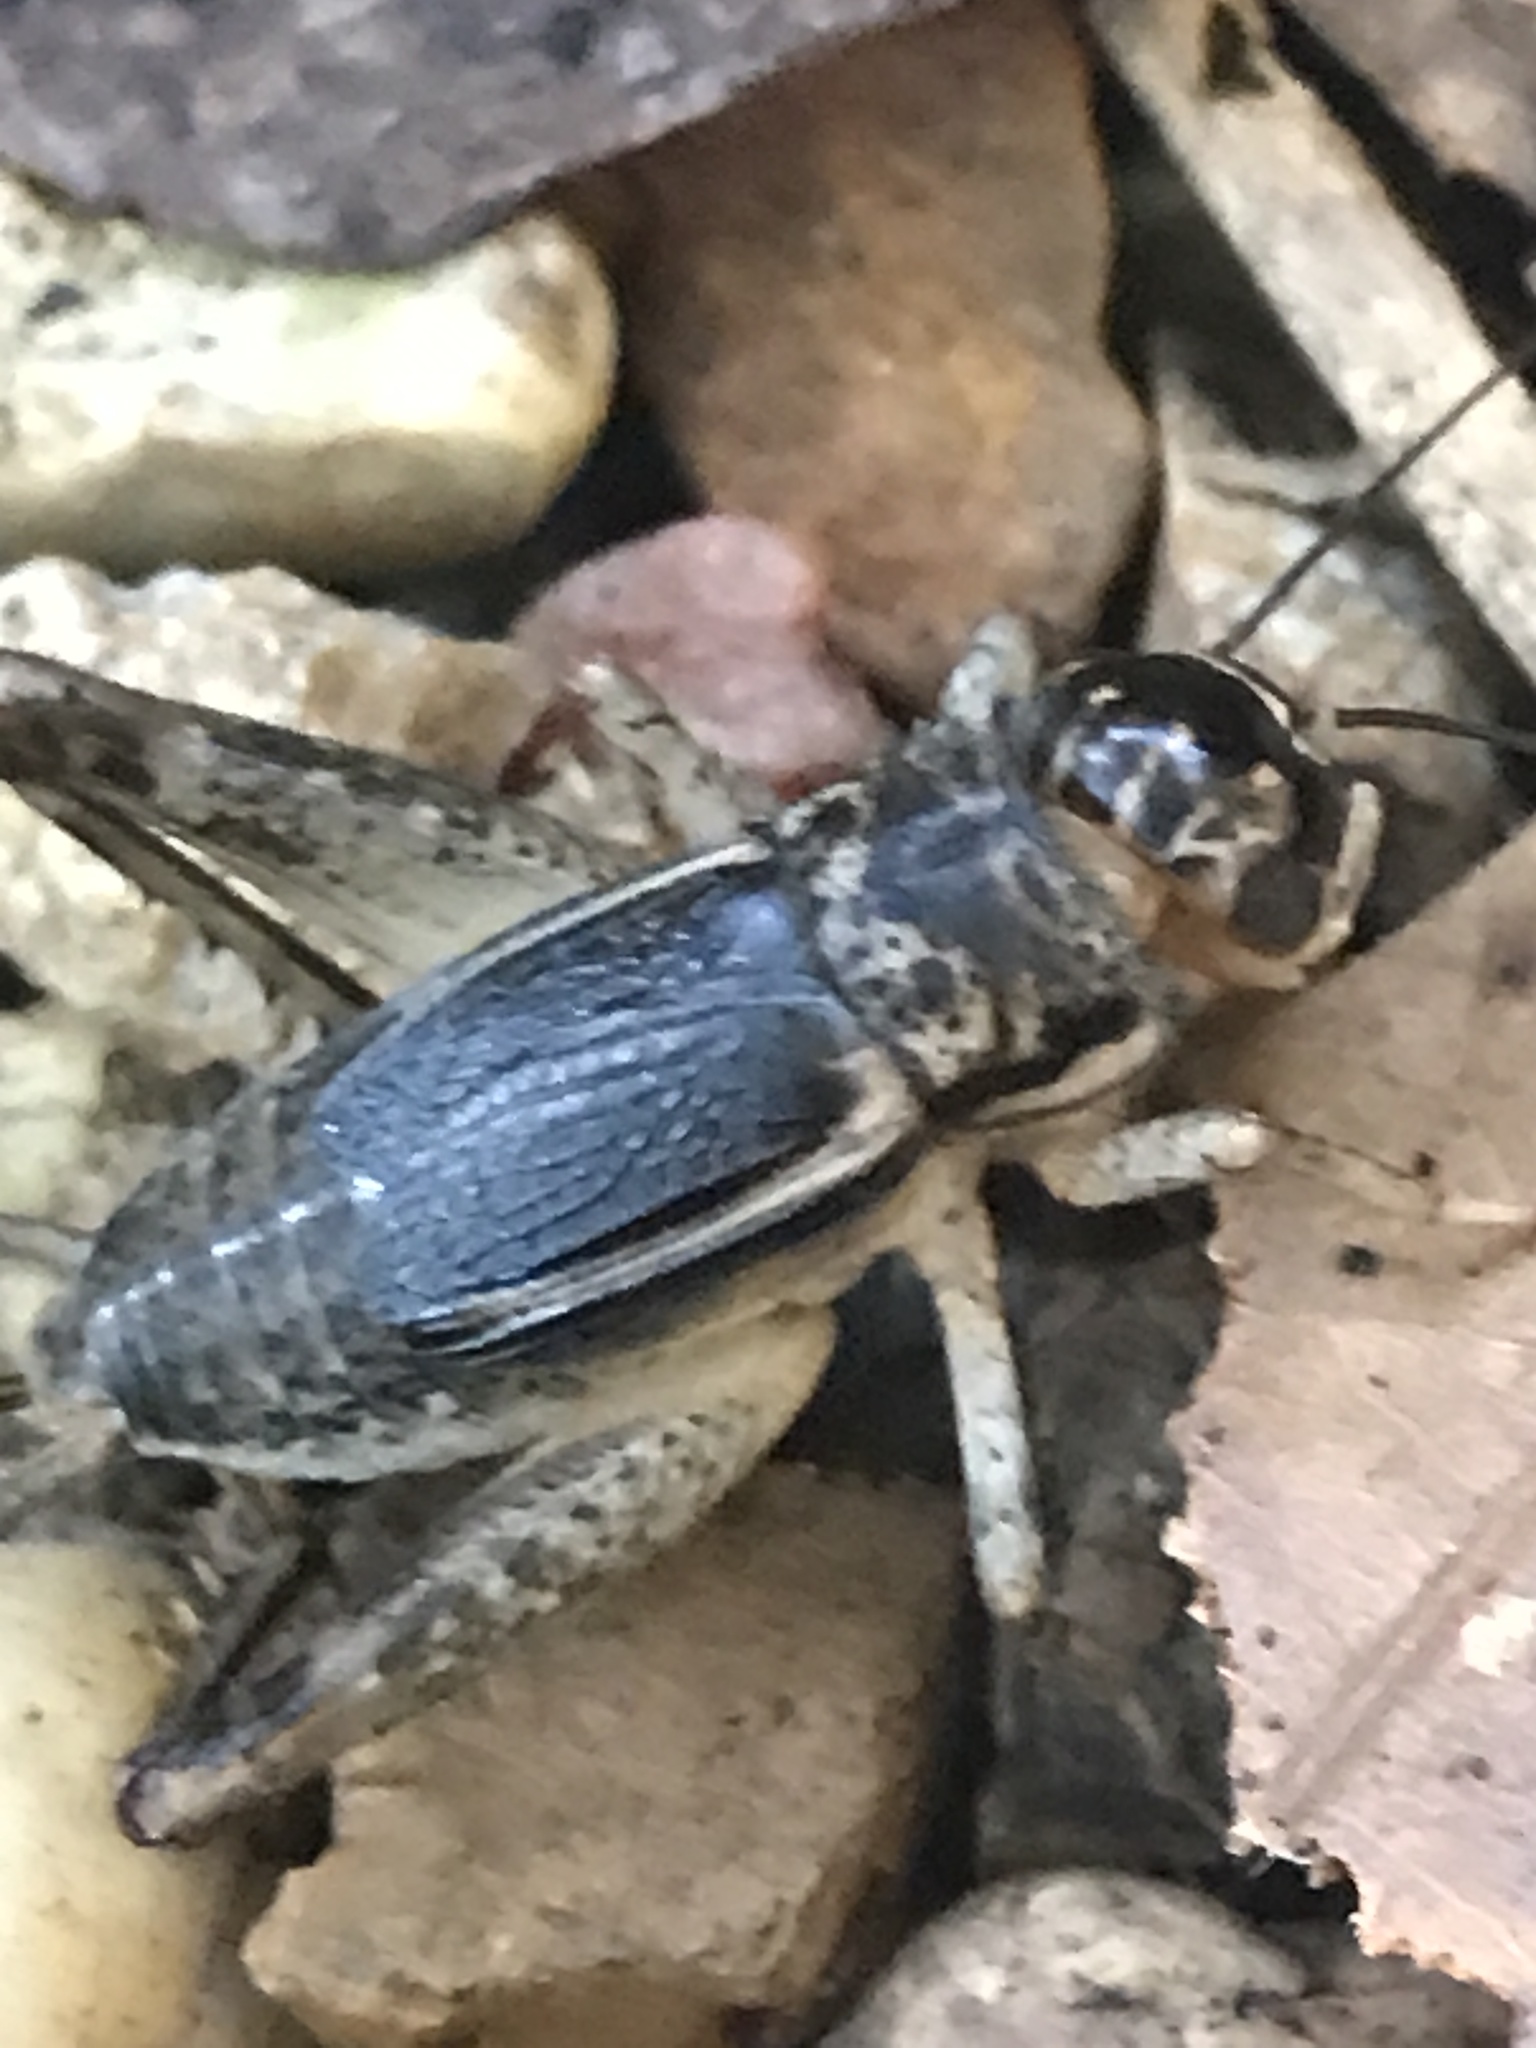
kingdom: Animalia
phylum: Arthropoda
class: Insecta
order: Orthoptera
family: Gryllidae
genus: Velarifictorus
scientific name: Velarifictorus micado
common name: Japanese burrowing cricket
